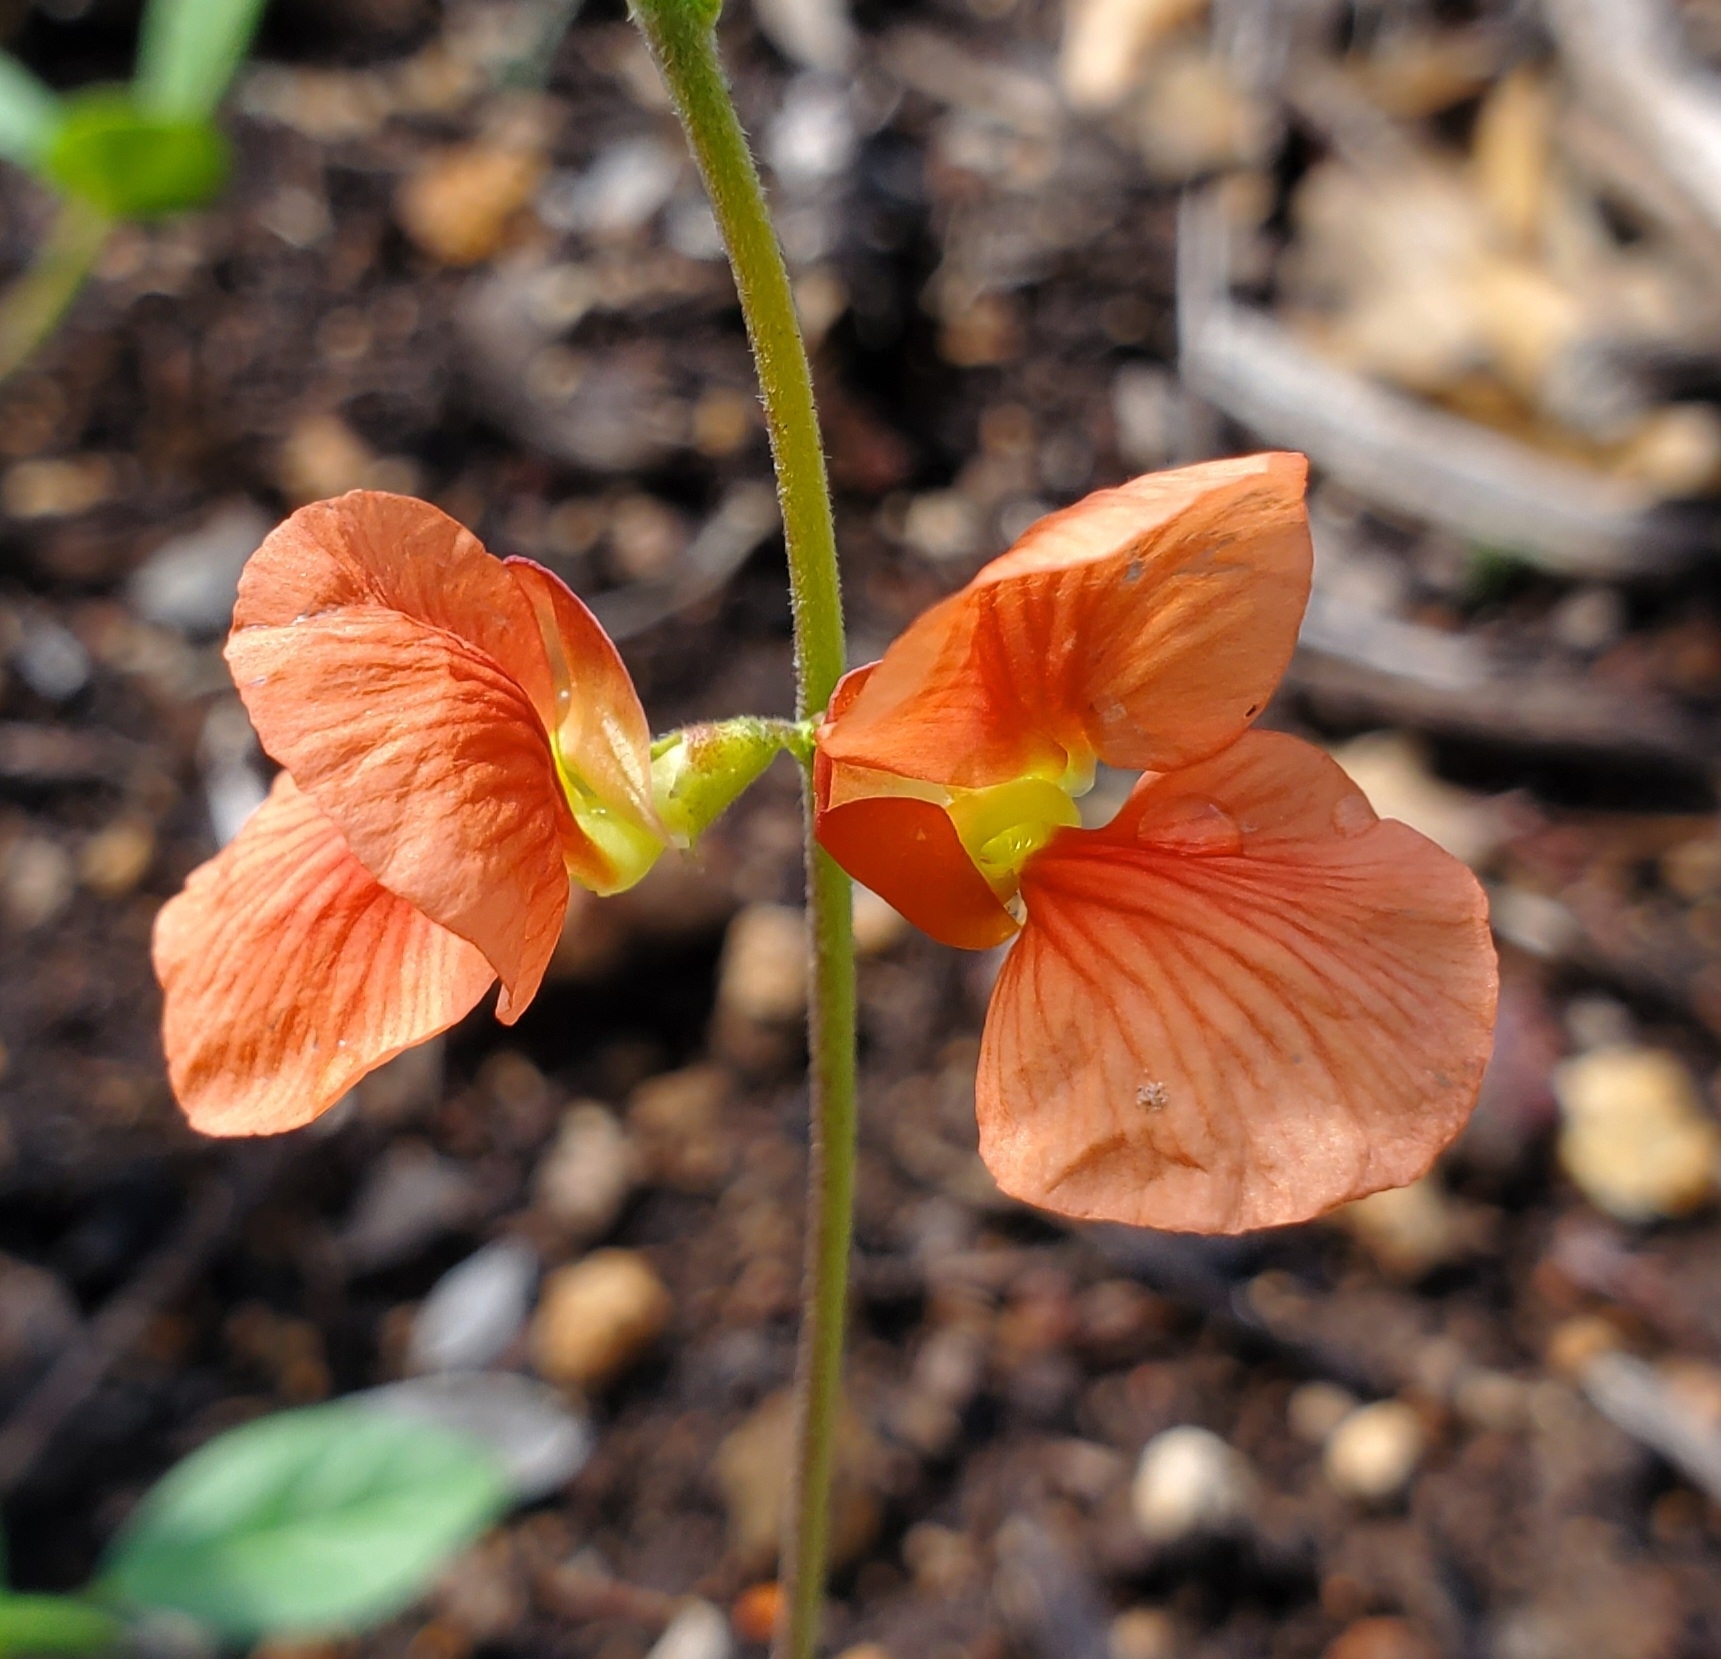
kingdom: Plantae
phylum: Tracheophyta
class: Magnoliopsida
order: Fabales
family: Fabaceae
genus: Macroptilium
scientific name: Macroptilium gibbosifolium
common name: Variableleaf bushbean
